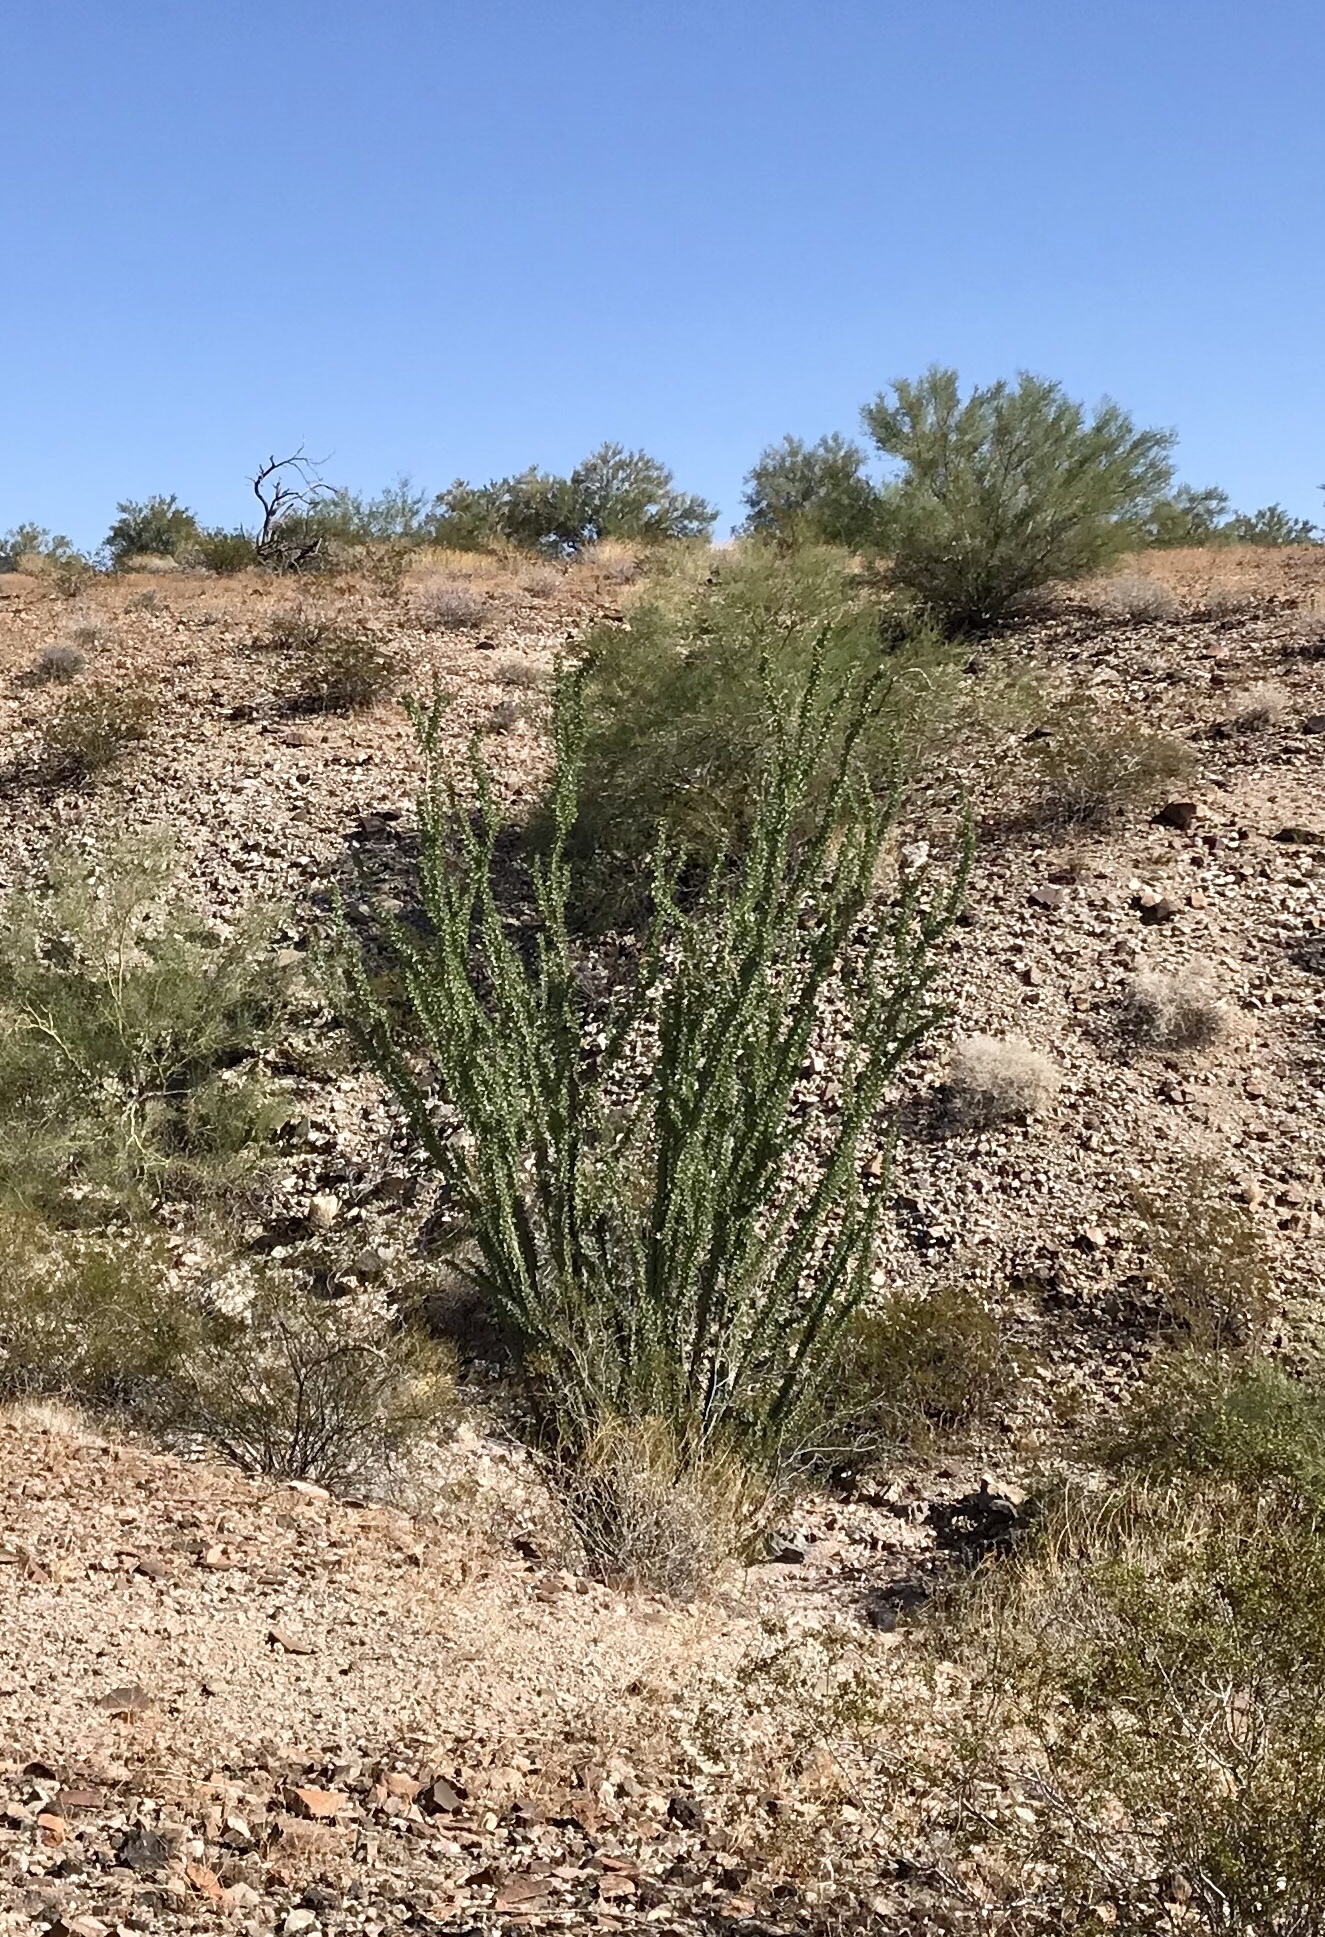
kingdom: Plantae
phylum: Tracheophyta
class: Magnoliopsida
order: Ericales
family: Fouquieriaceae
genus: Fouquieria
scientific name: Fouquieria splendens
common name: Vine-cactus
